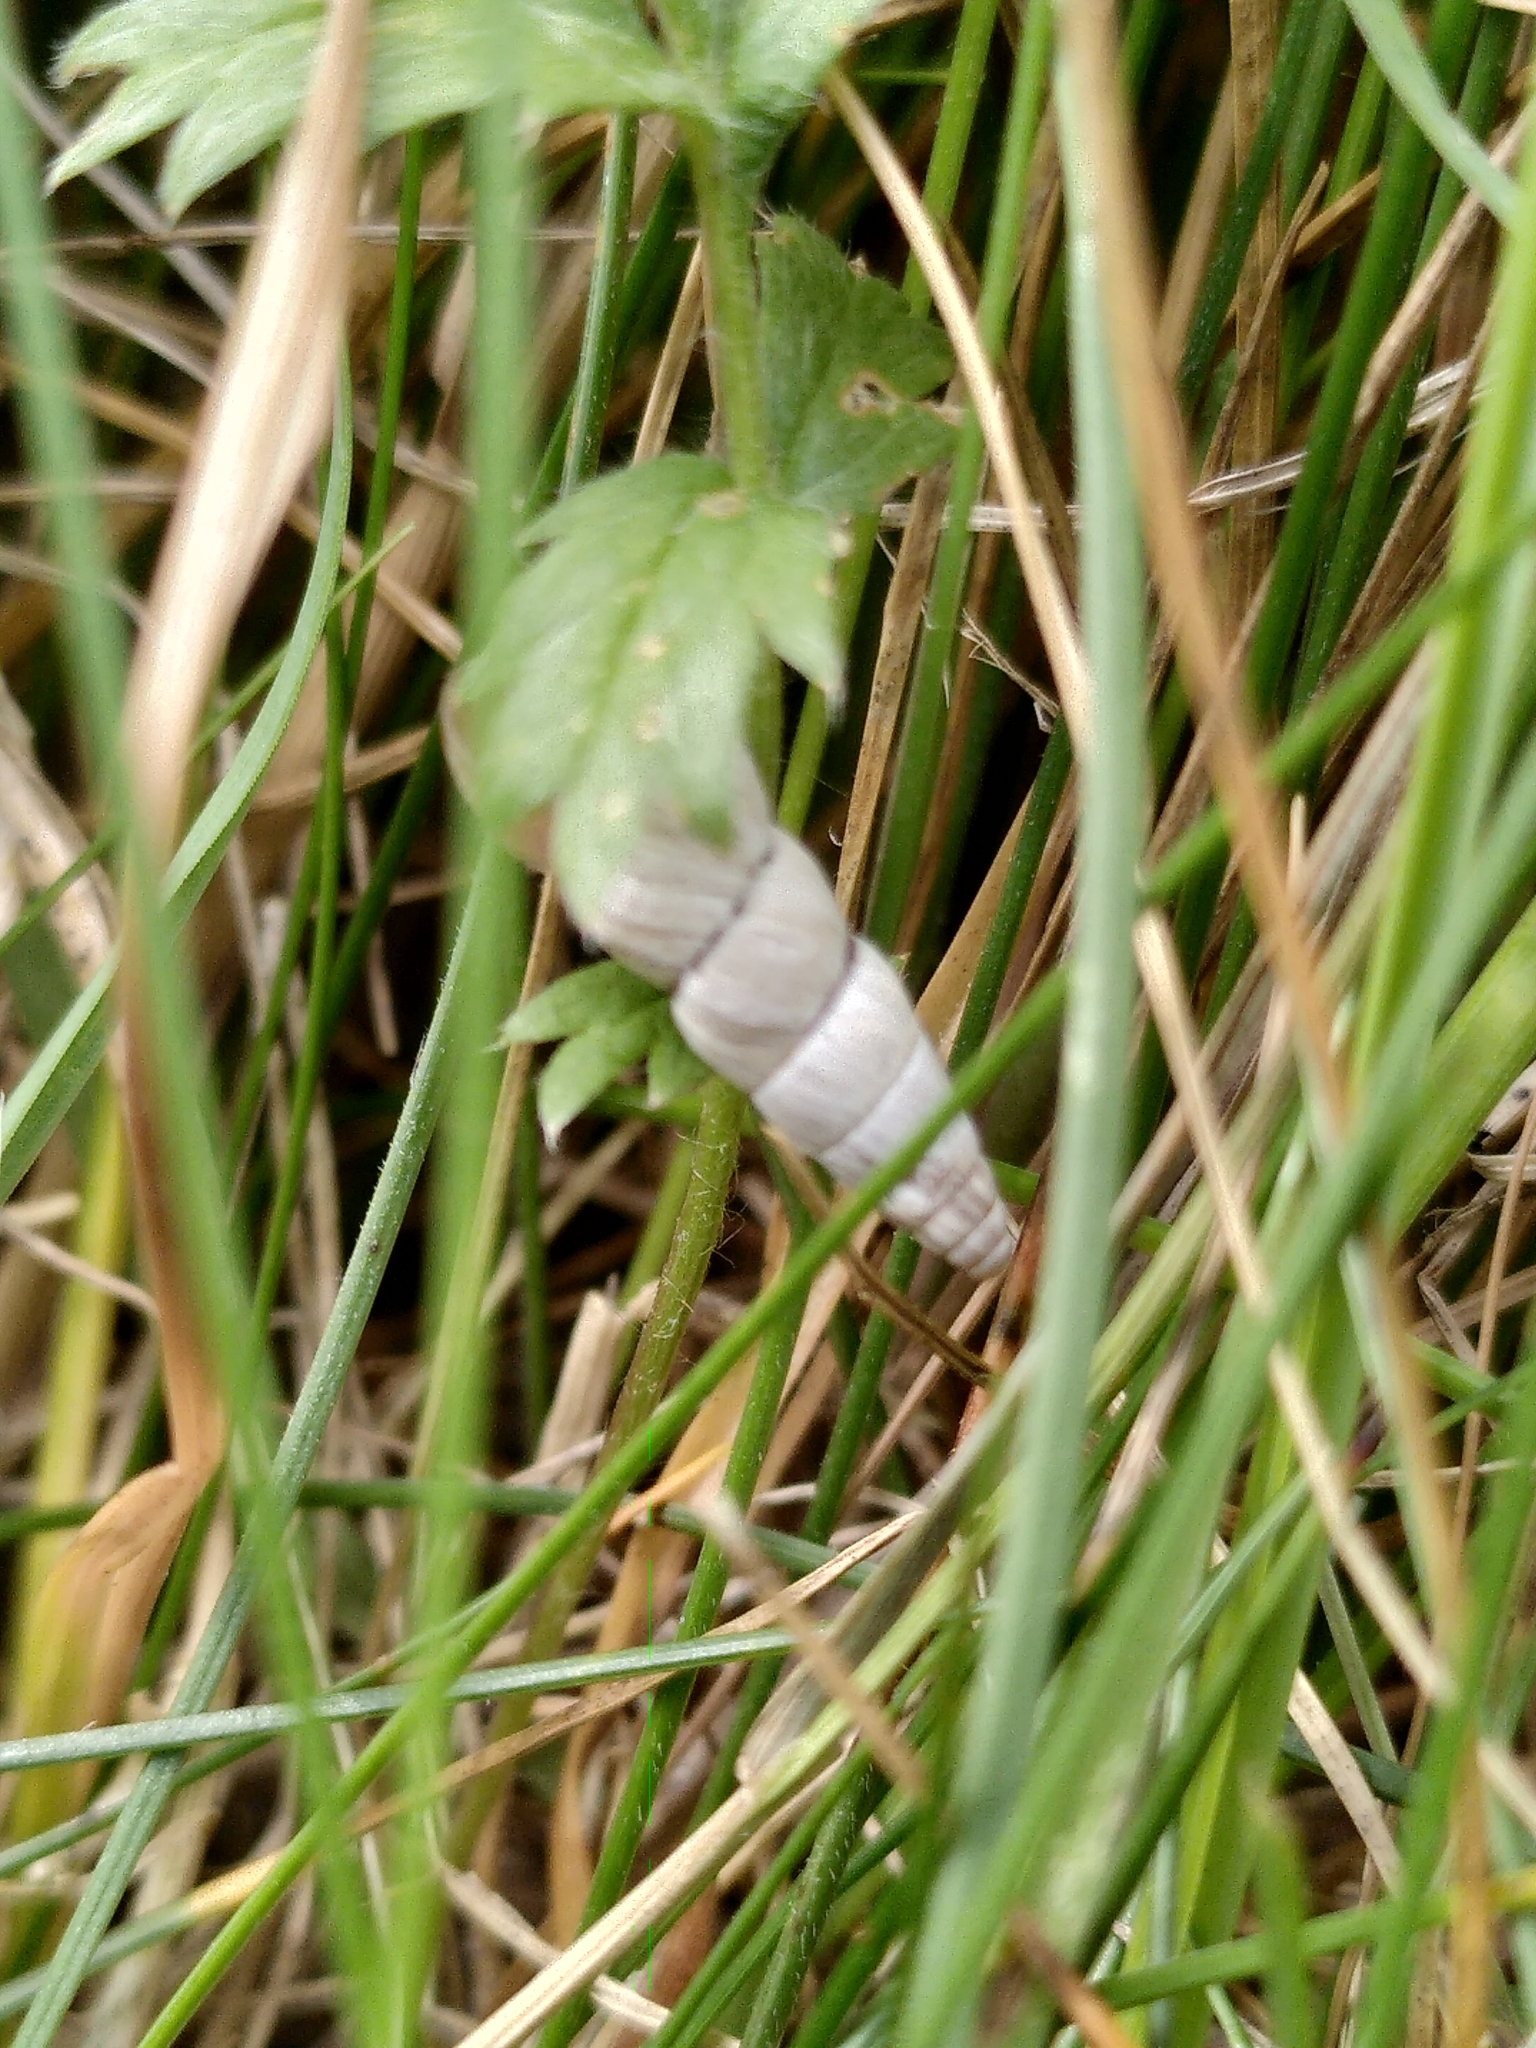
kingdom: Animalia
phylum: Mollusca
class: Gastropoda
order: Stylommatophora
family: Geomitridae
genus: Cochlicella
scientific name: Cochlicella acuta
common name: Pointed snail
